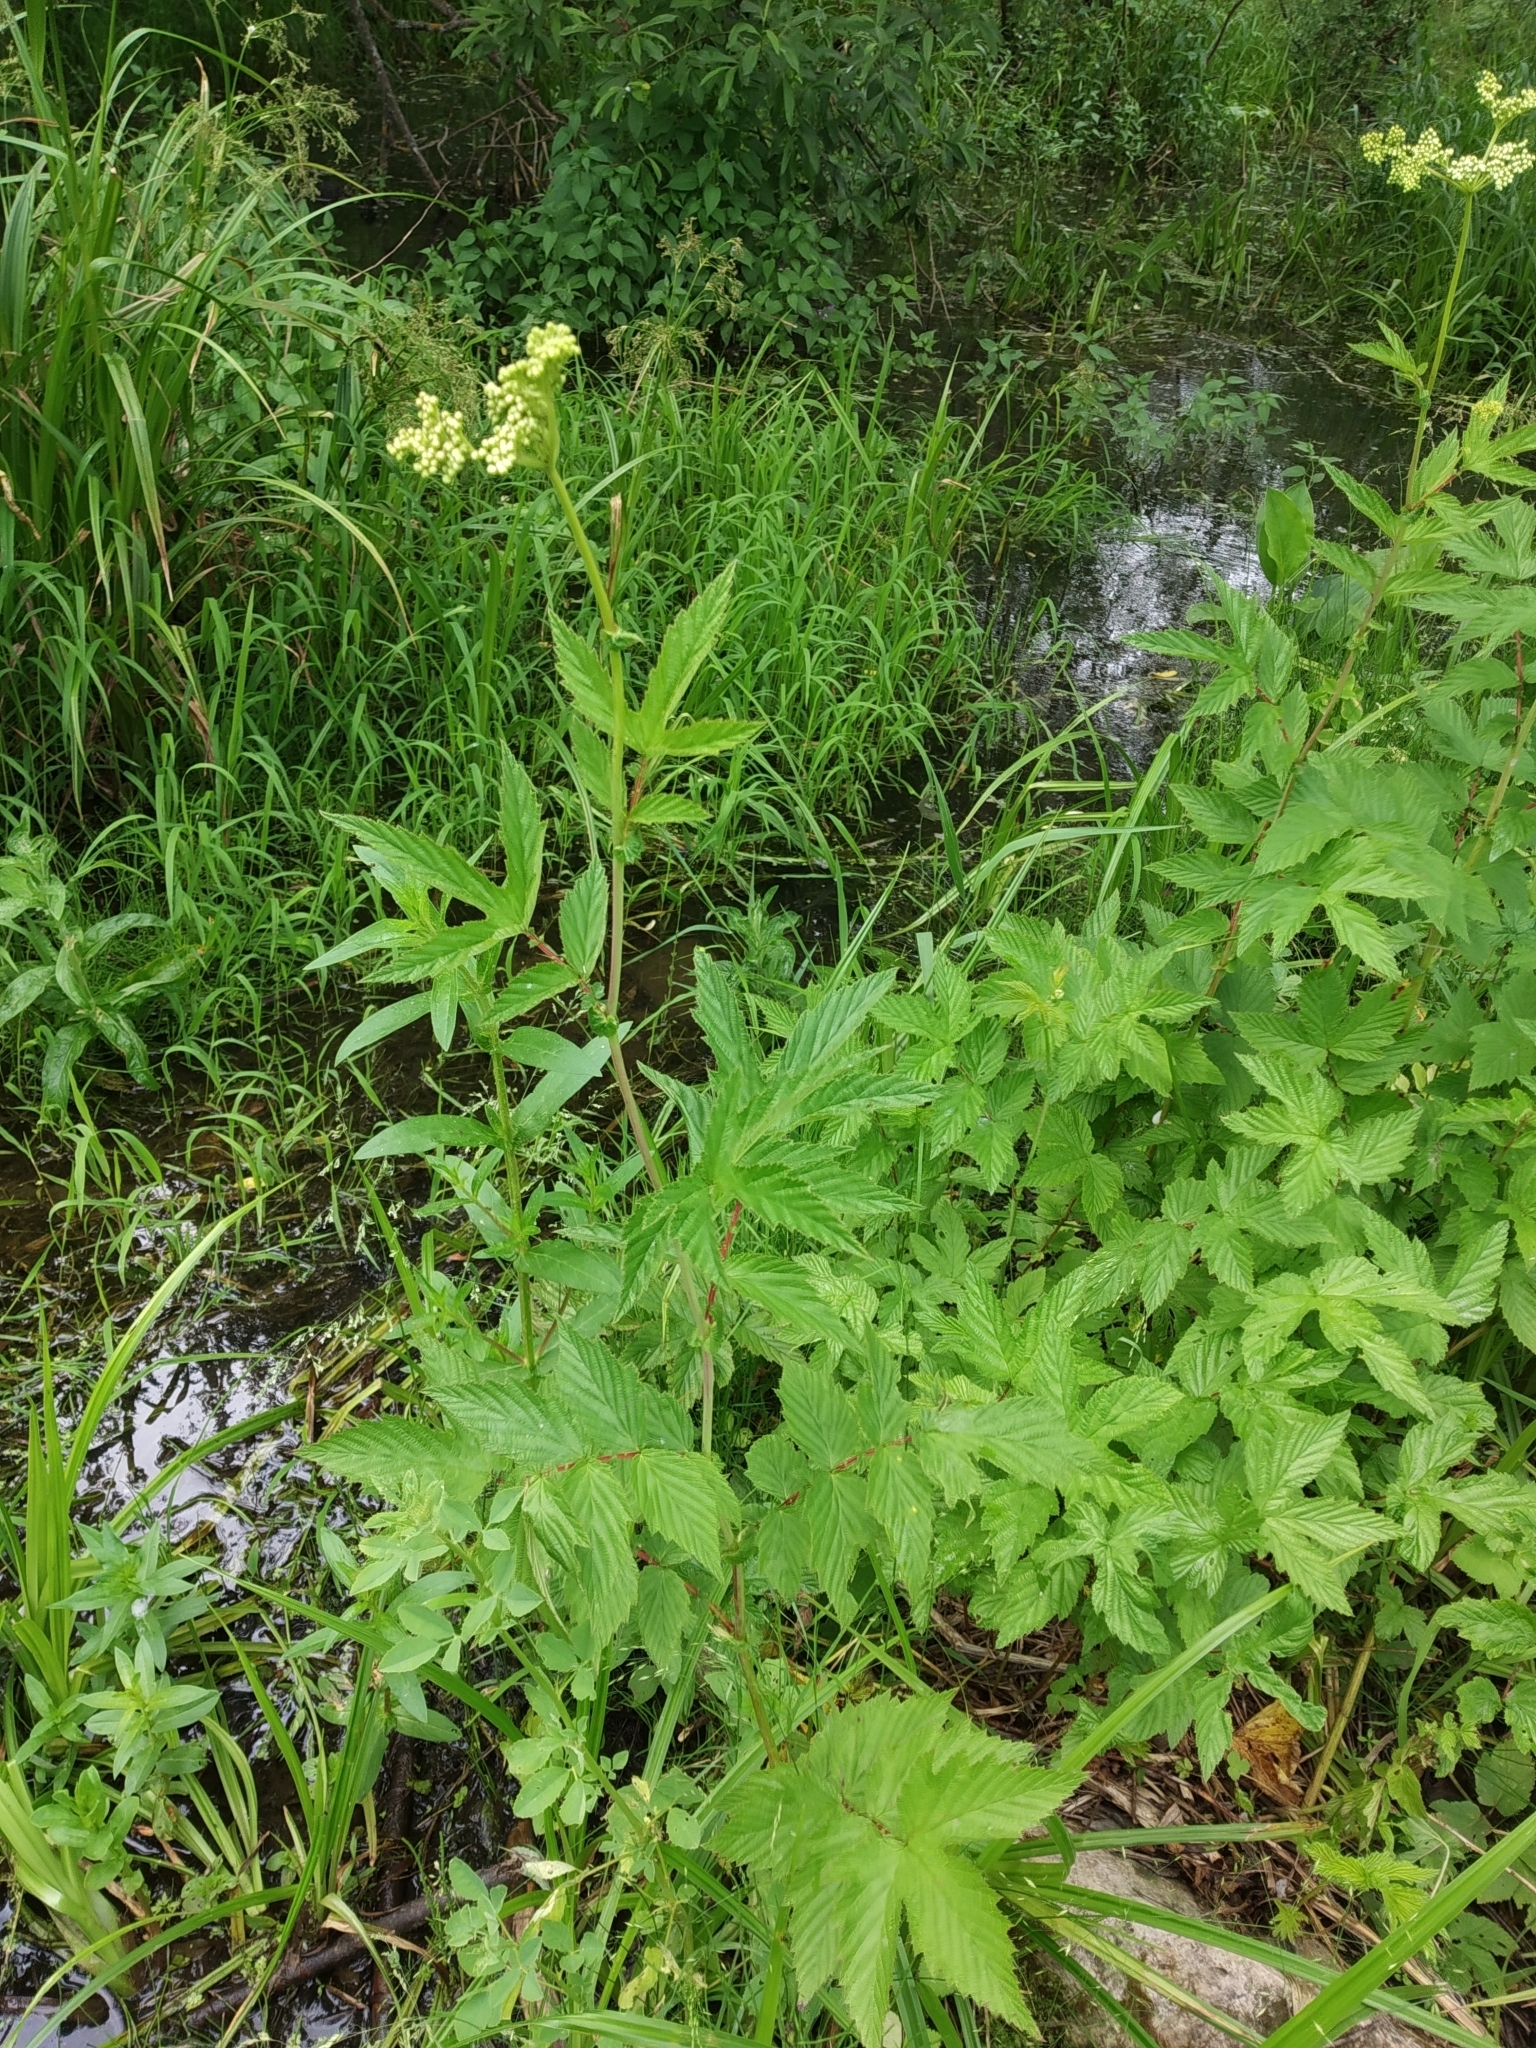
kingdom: Plantae
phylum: Tracheophyta
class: Magnoliopsida
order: Rosales
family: Rosaceae
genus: Filipendula
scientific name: Filipendula ulmaria
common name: Meadowsweet
